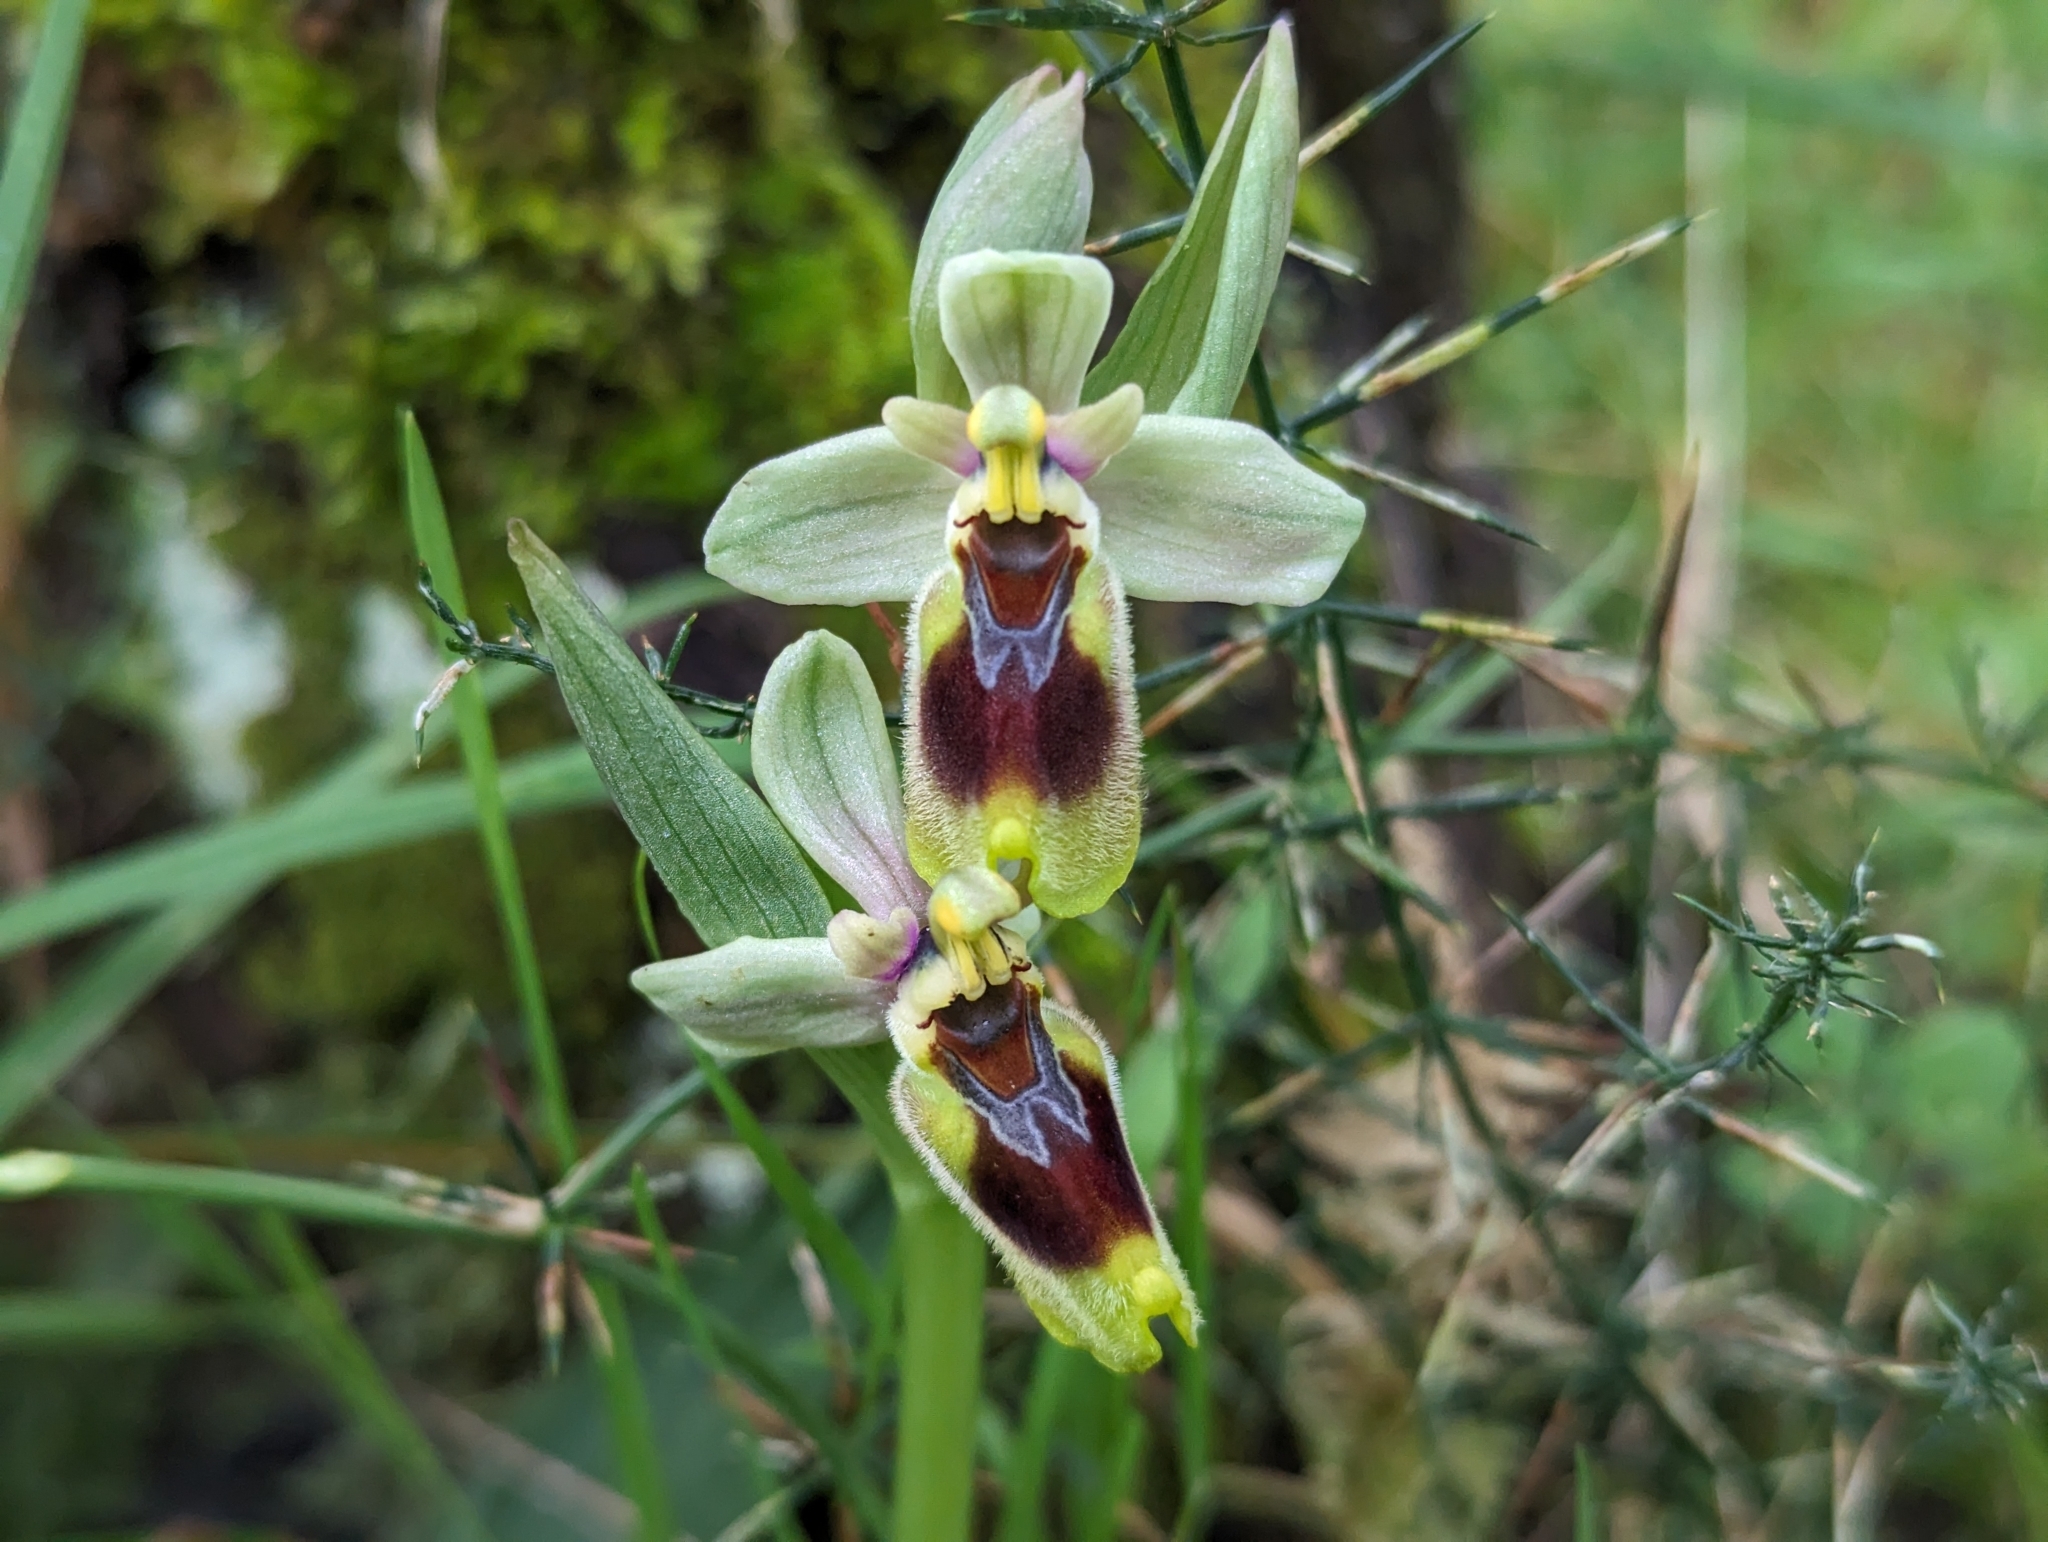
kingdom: Plantae
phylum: Tracheophyta
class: Liliopsida
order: Asparagales
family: Orchidaceae
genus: Ophrys
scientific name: Ophrys tenthredinifera
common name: Sawfly orchid
